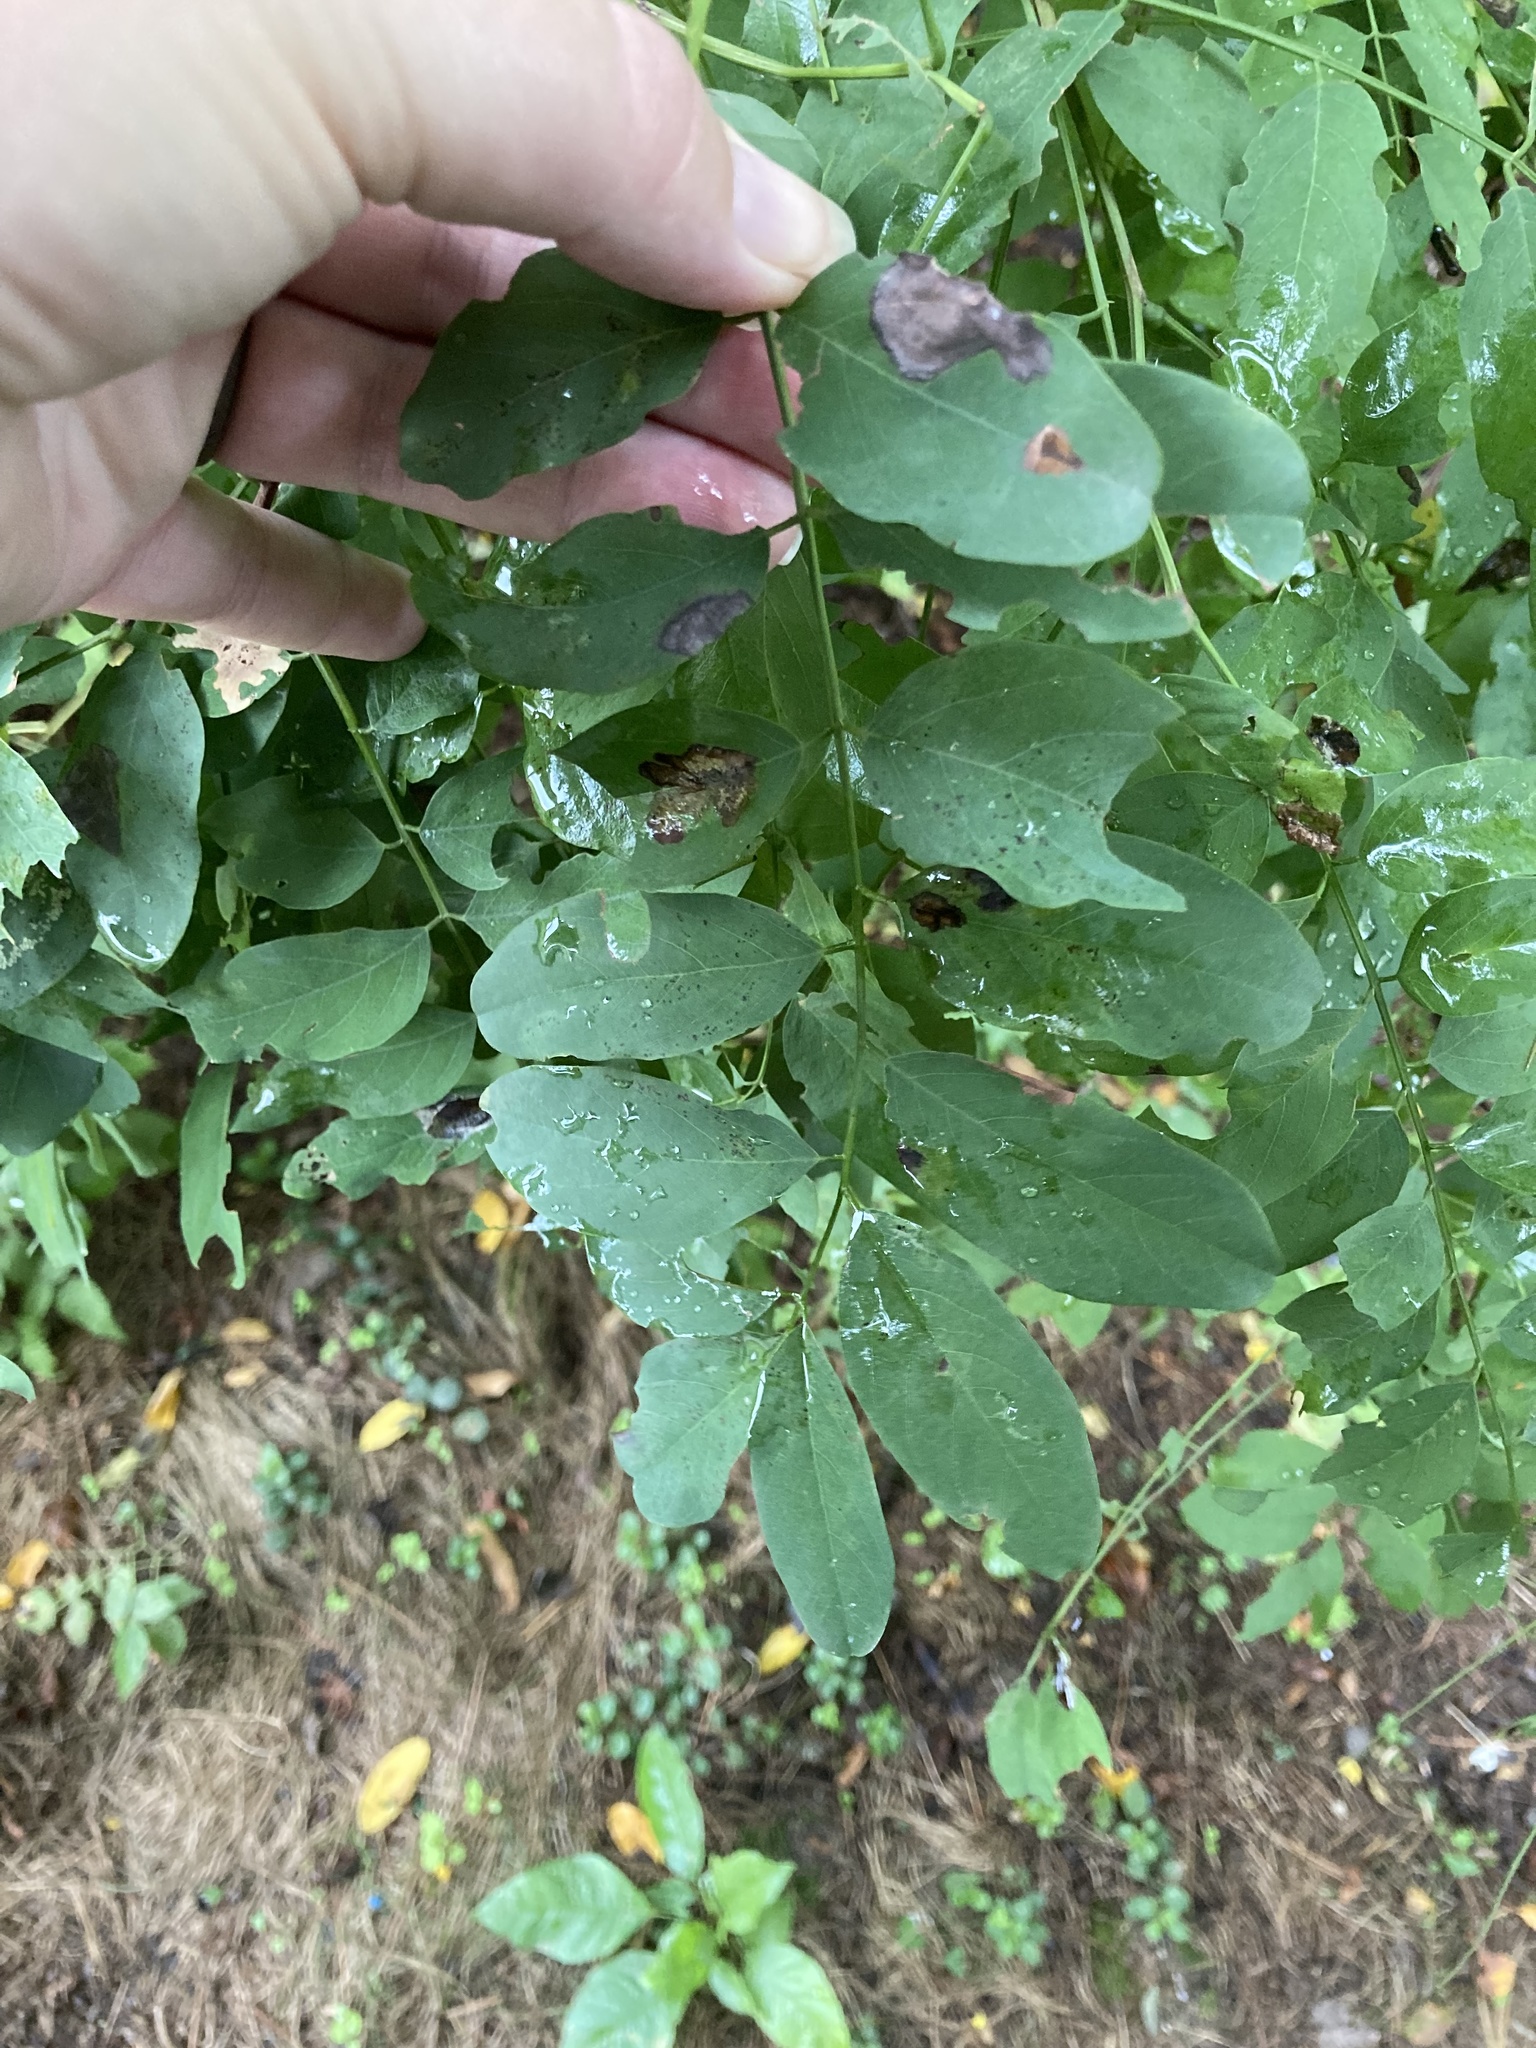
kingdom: Plantae
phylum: Tracheophyta
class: Magnoliopsida
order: Fabales
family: Fabaceae
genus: Robinia
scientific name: Robinia pseudoacacia
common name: Black locust
